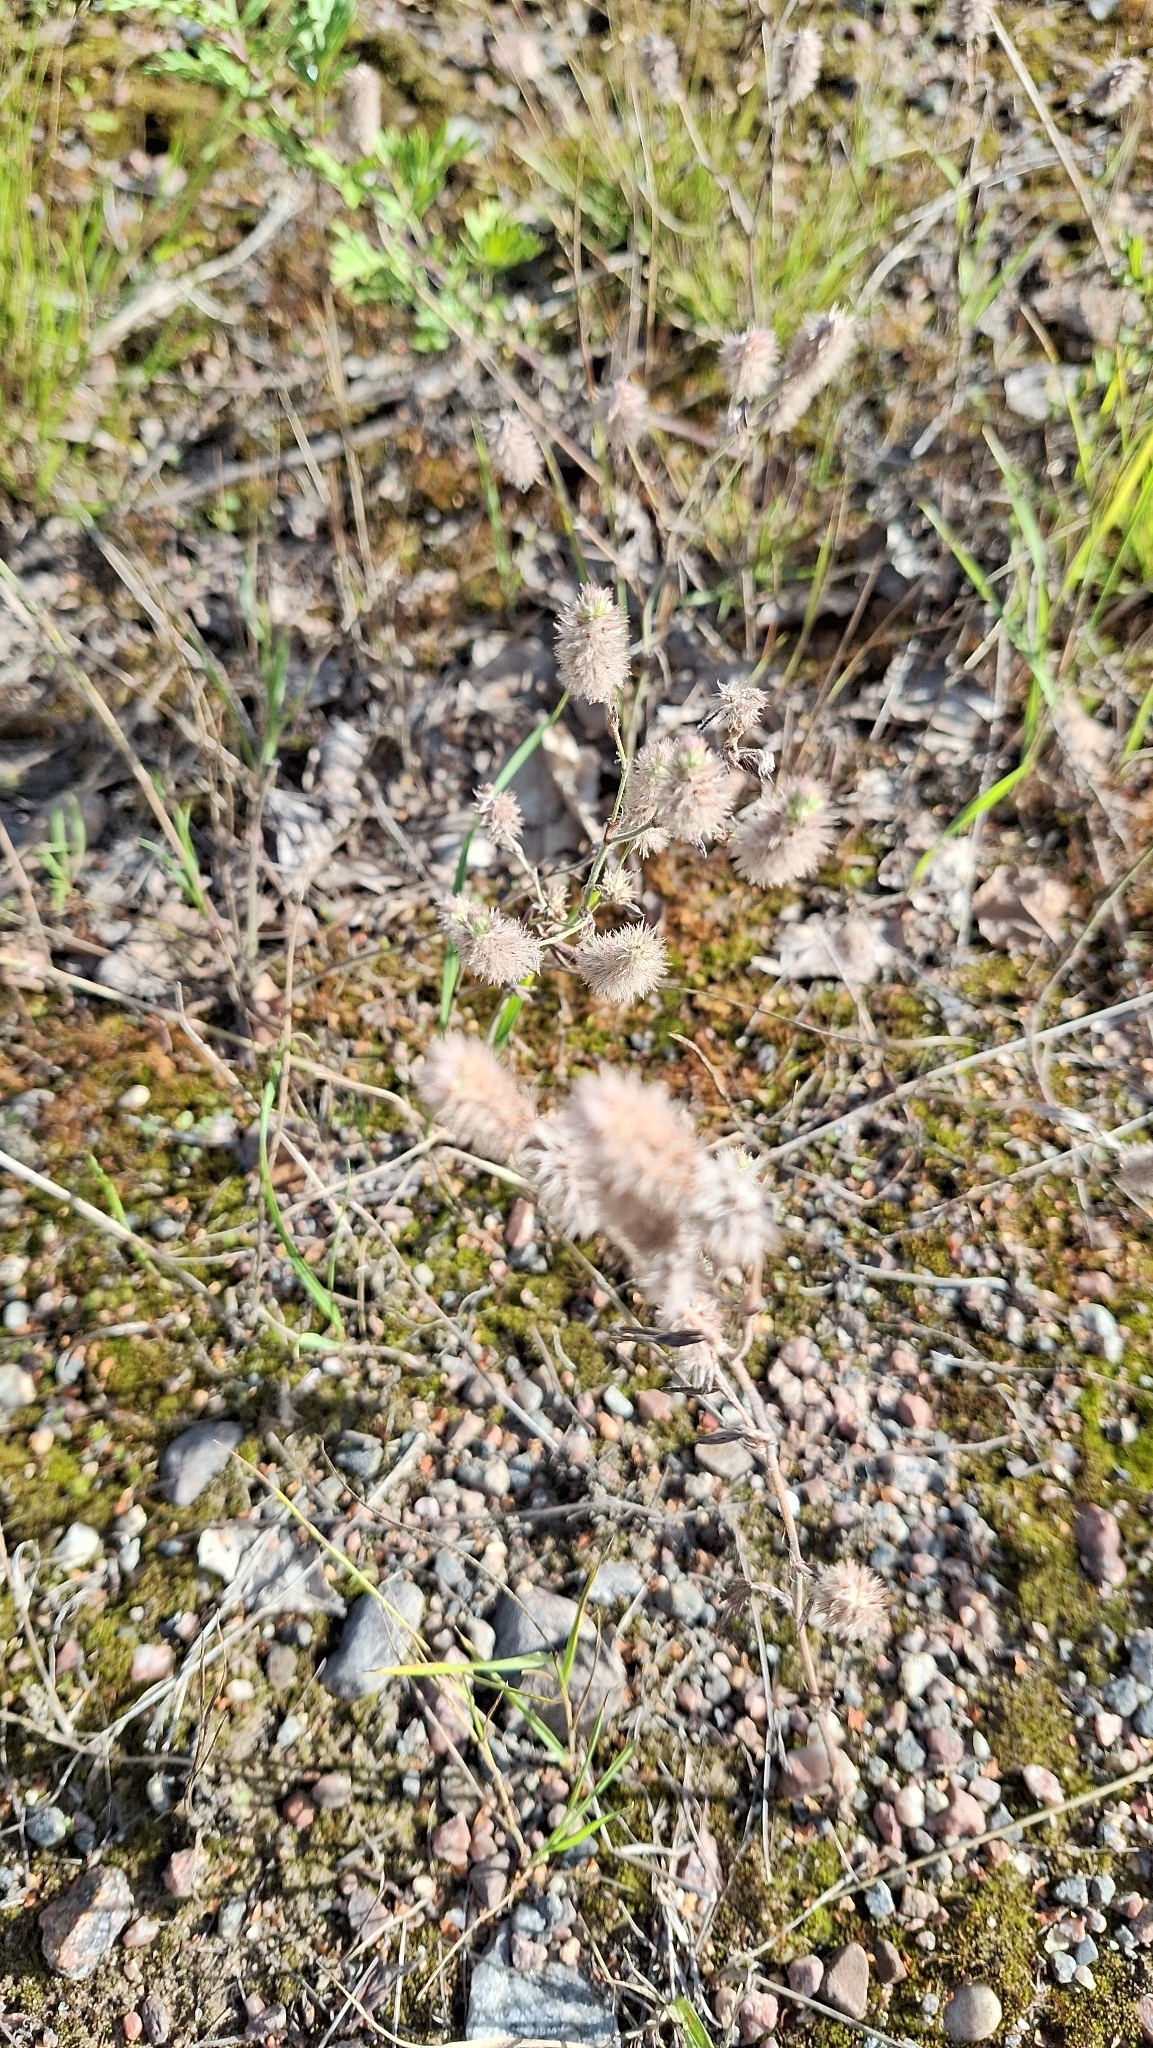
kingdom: Plantae
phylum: Tracheophyta
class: Magnoliopsida
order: Fabales
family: Fabaceae
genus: Trifolium
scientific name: Trifolium arvense
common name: Hare's-foot clover
